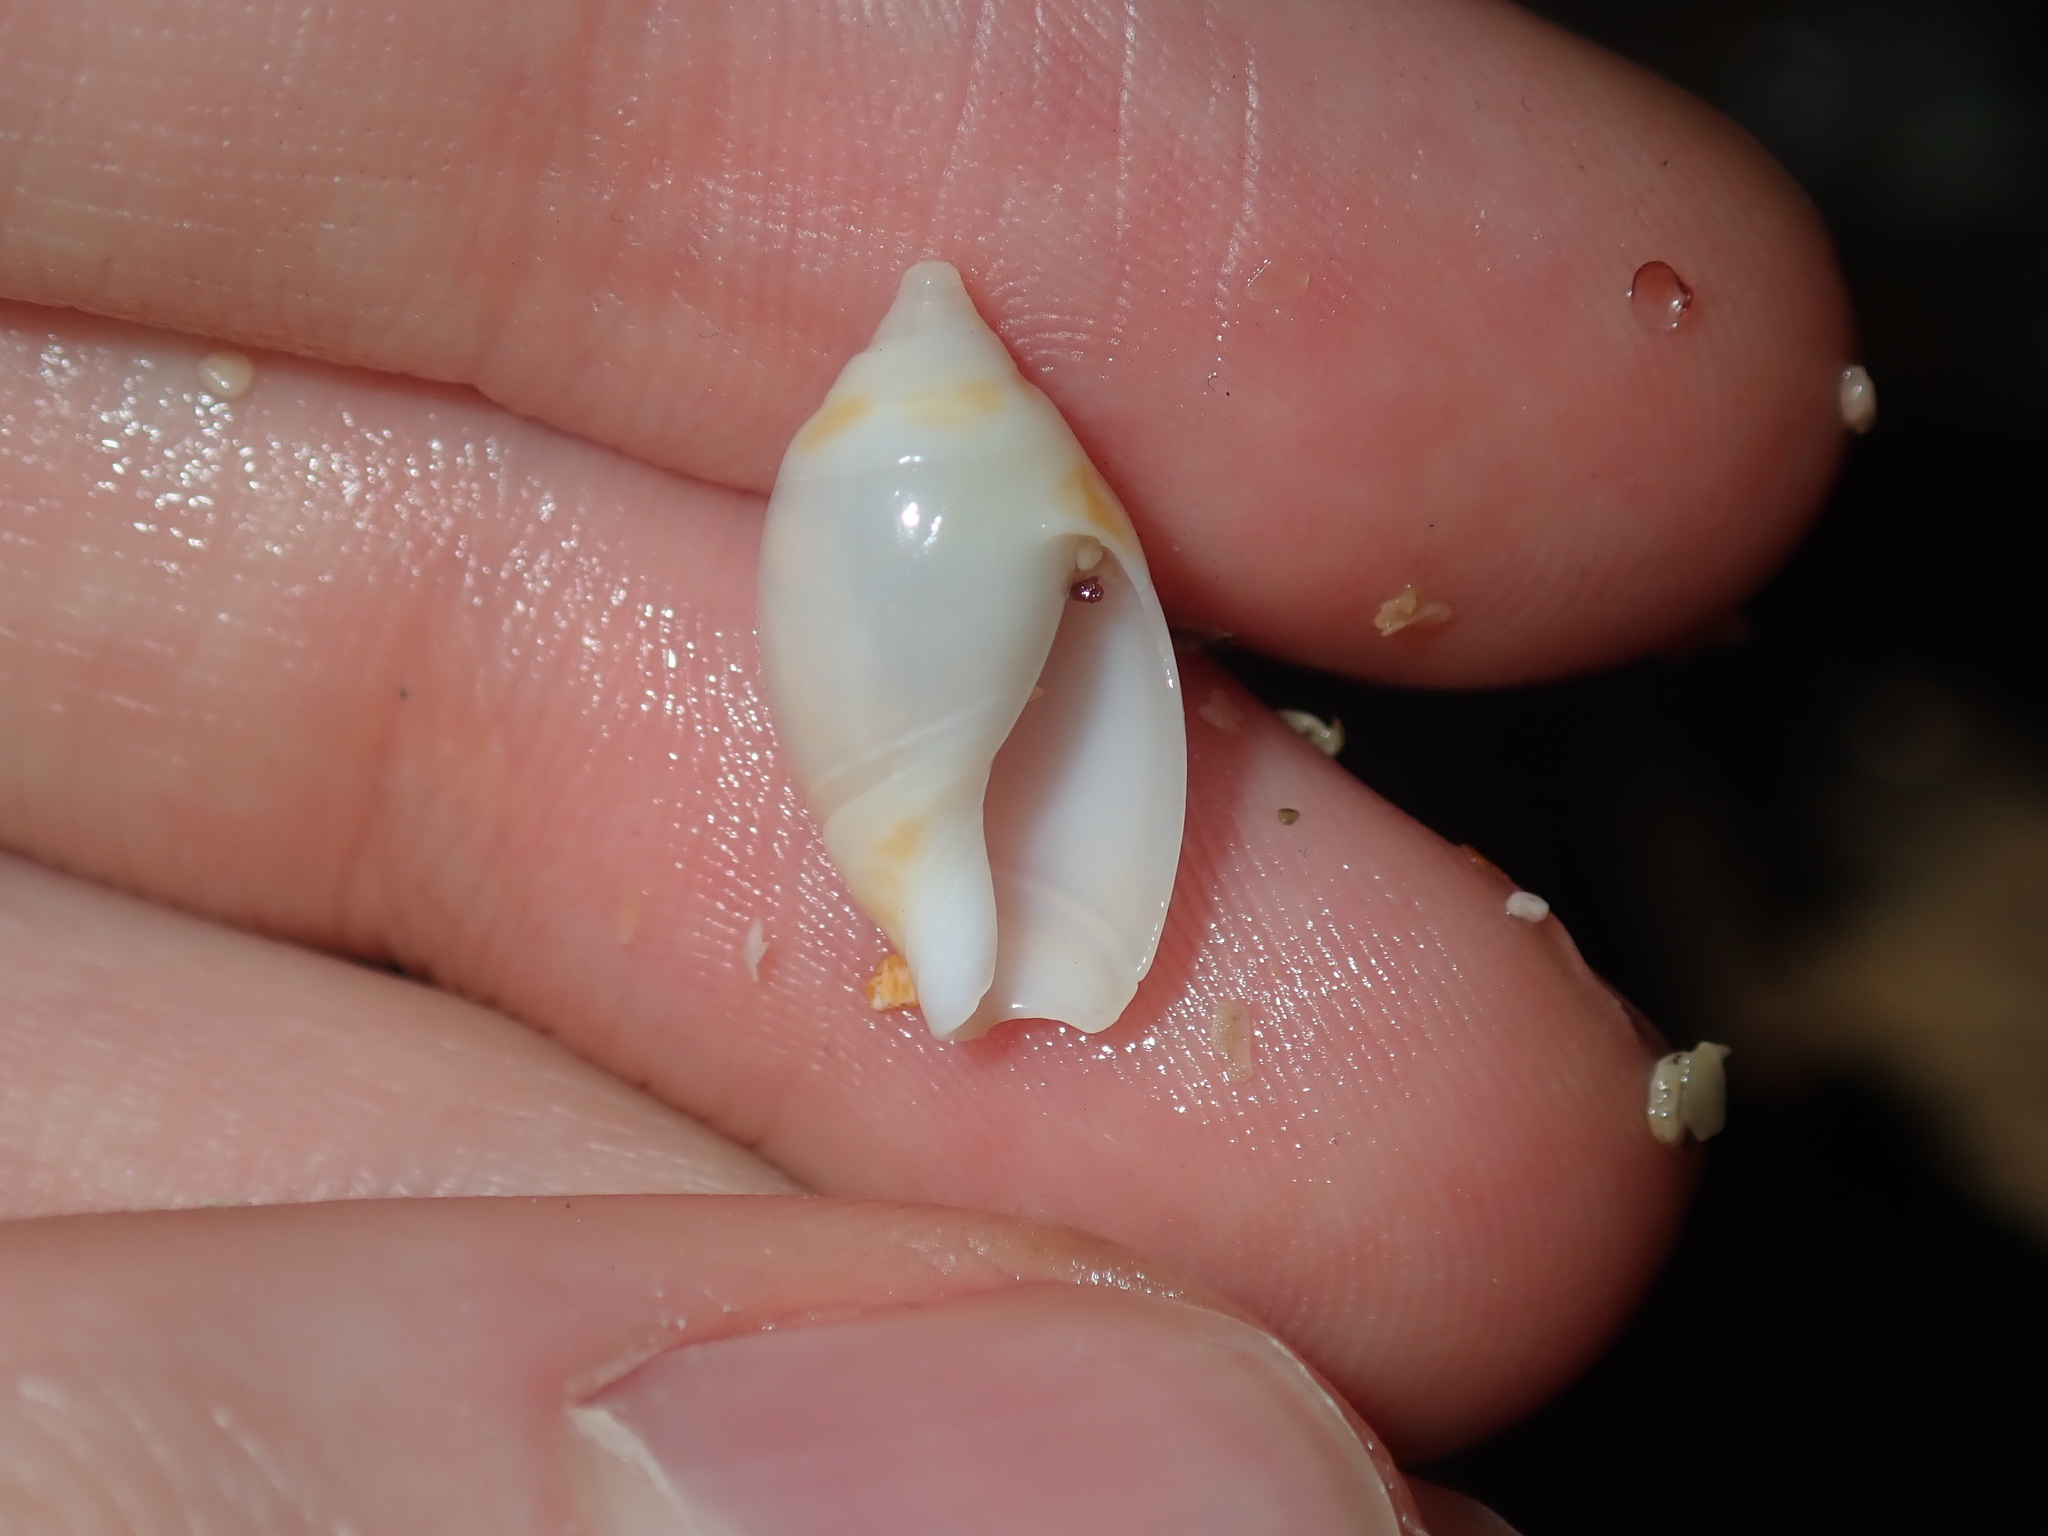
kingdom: Animalia
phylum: Mollusca
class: Gastropoda
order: Neogastropoda
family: Ancillariidae
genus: Amalda
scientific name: Amalda marginata
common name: Margin ancilla
